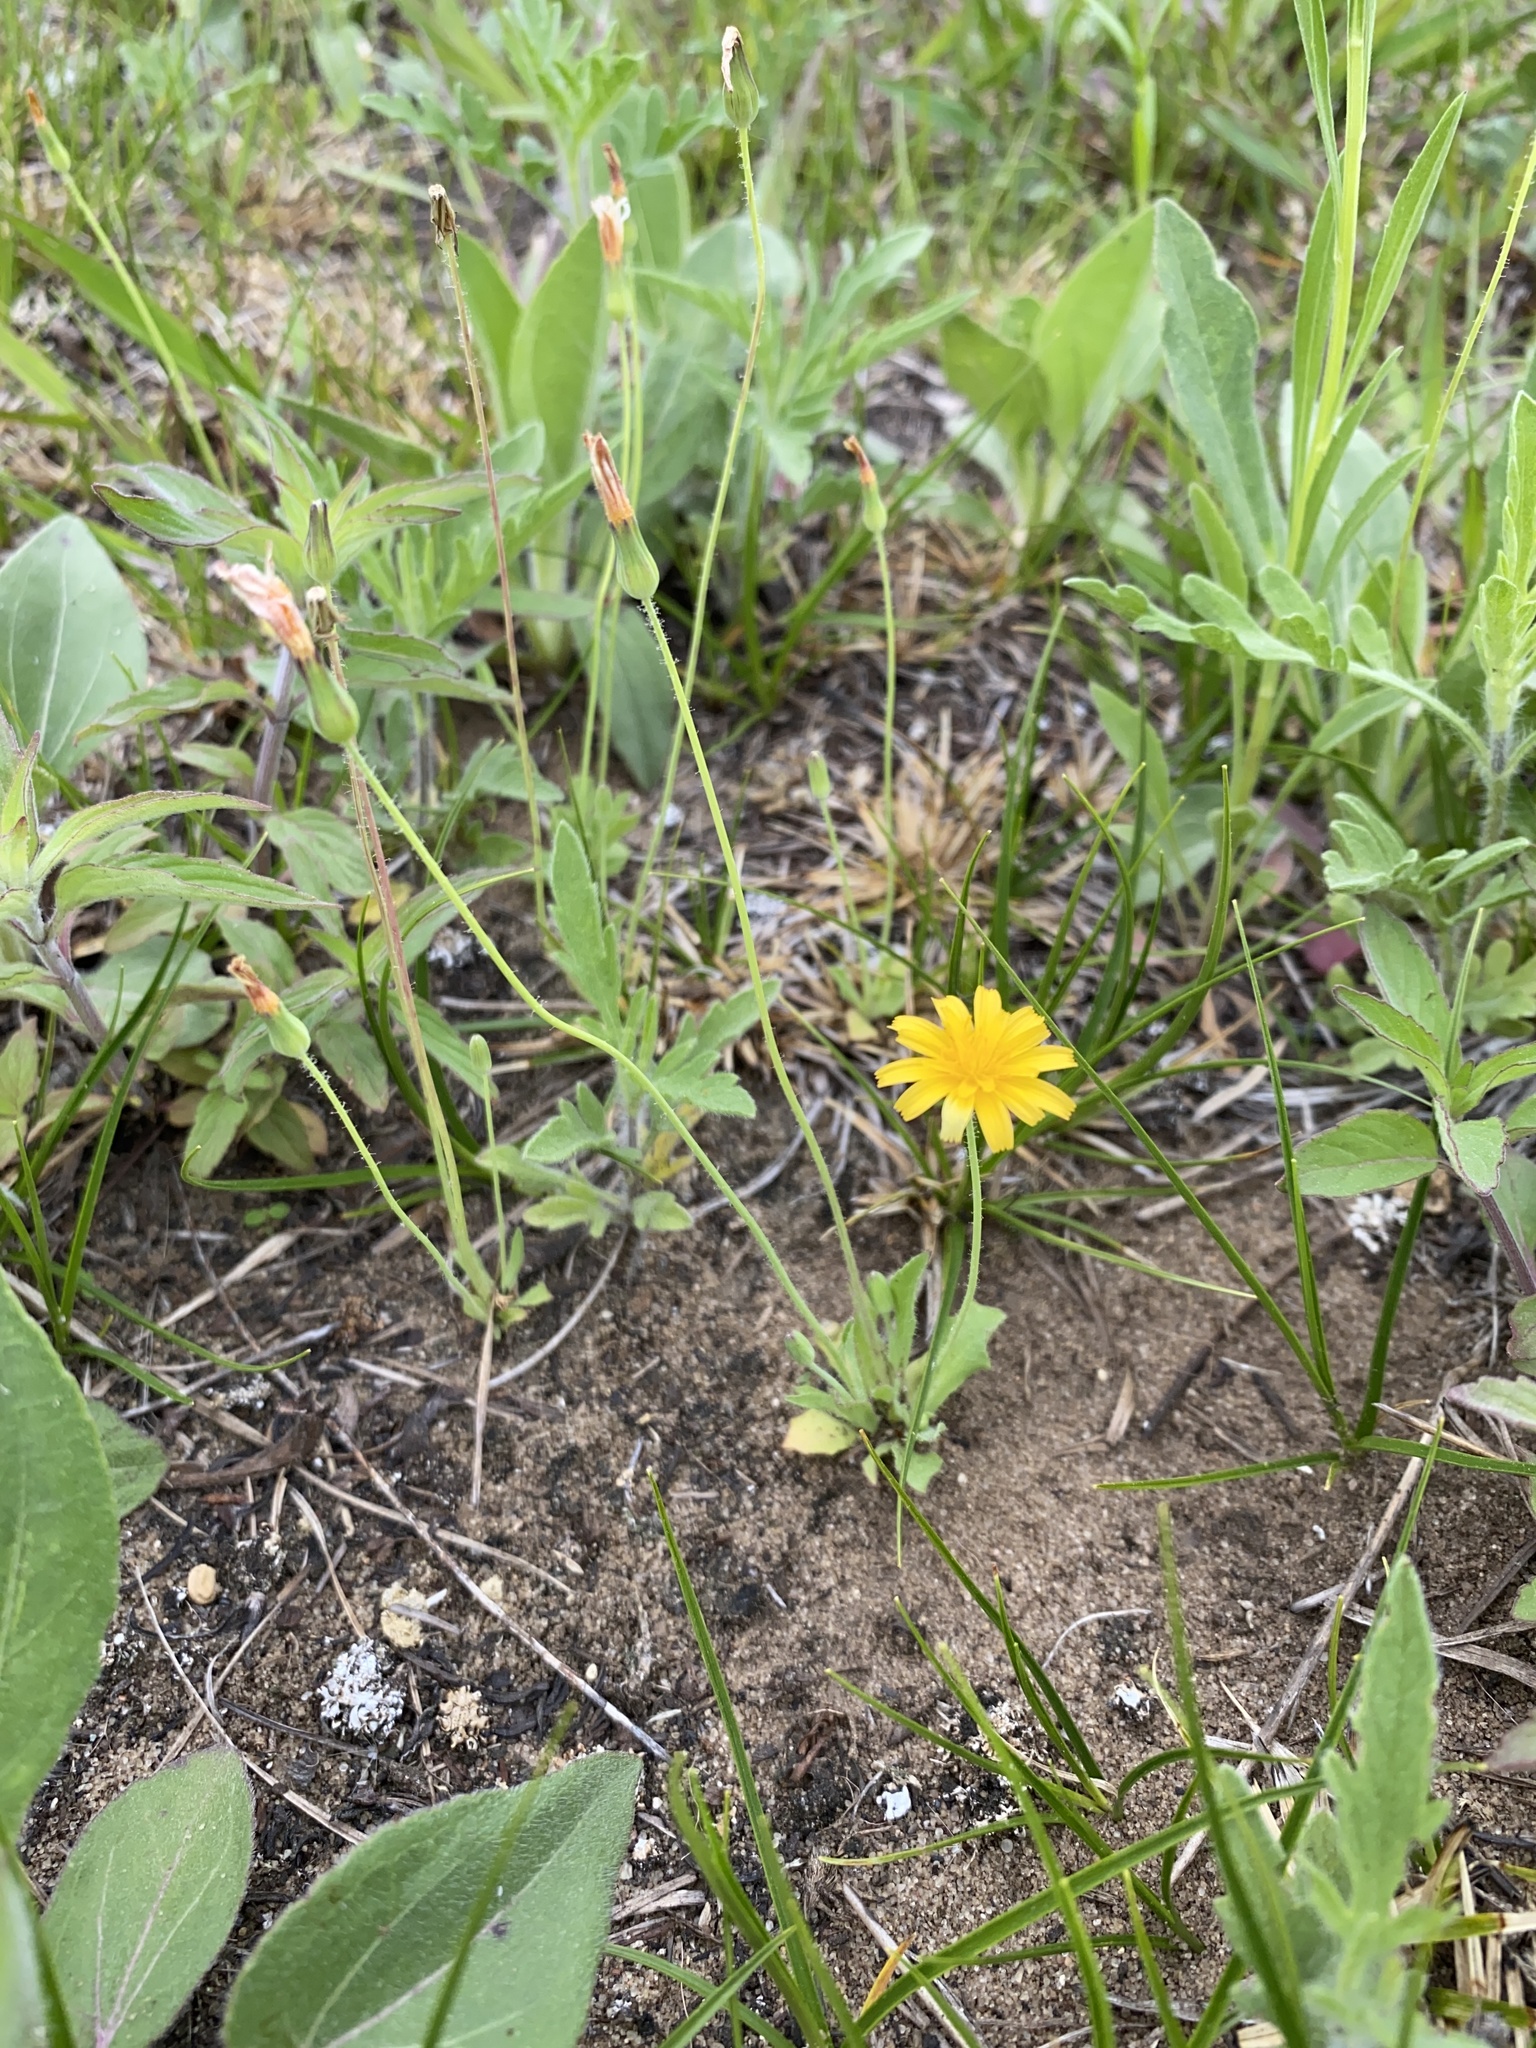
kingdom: Plantae
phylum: Tracheophyta
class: Magnoliopsida
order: Asterales
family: Asteraceae
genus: Krigia
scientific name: Krigia virginica
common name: Virginia dwarf-dandelion
